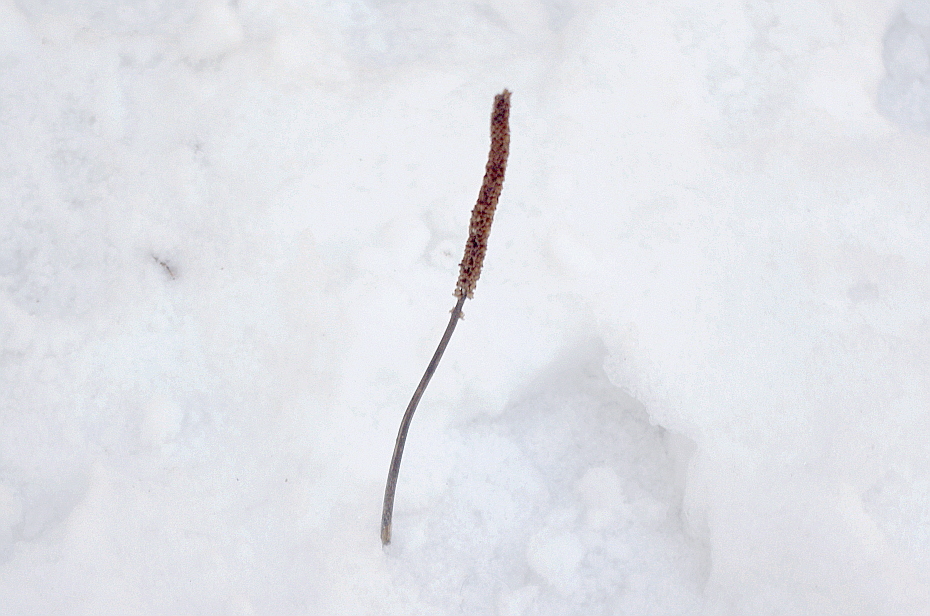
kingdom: Plantae
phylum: Tracheophyta
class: Magnoliopsida
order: Lamiales
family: Plantaginaceae
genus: Plantago
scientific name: Plantago major
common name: Common plantain
